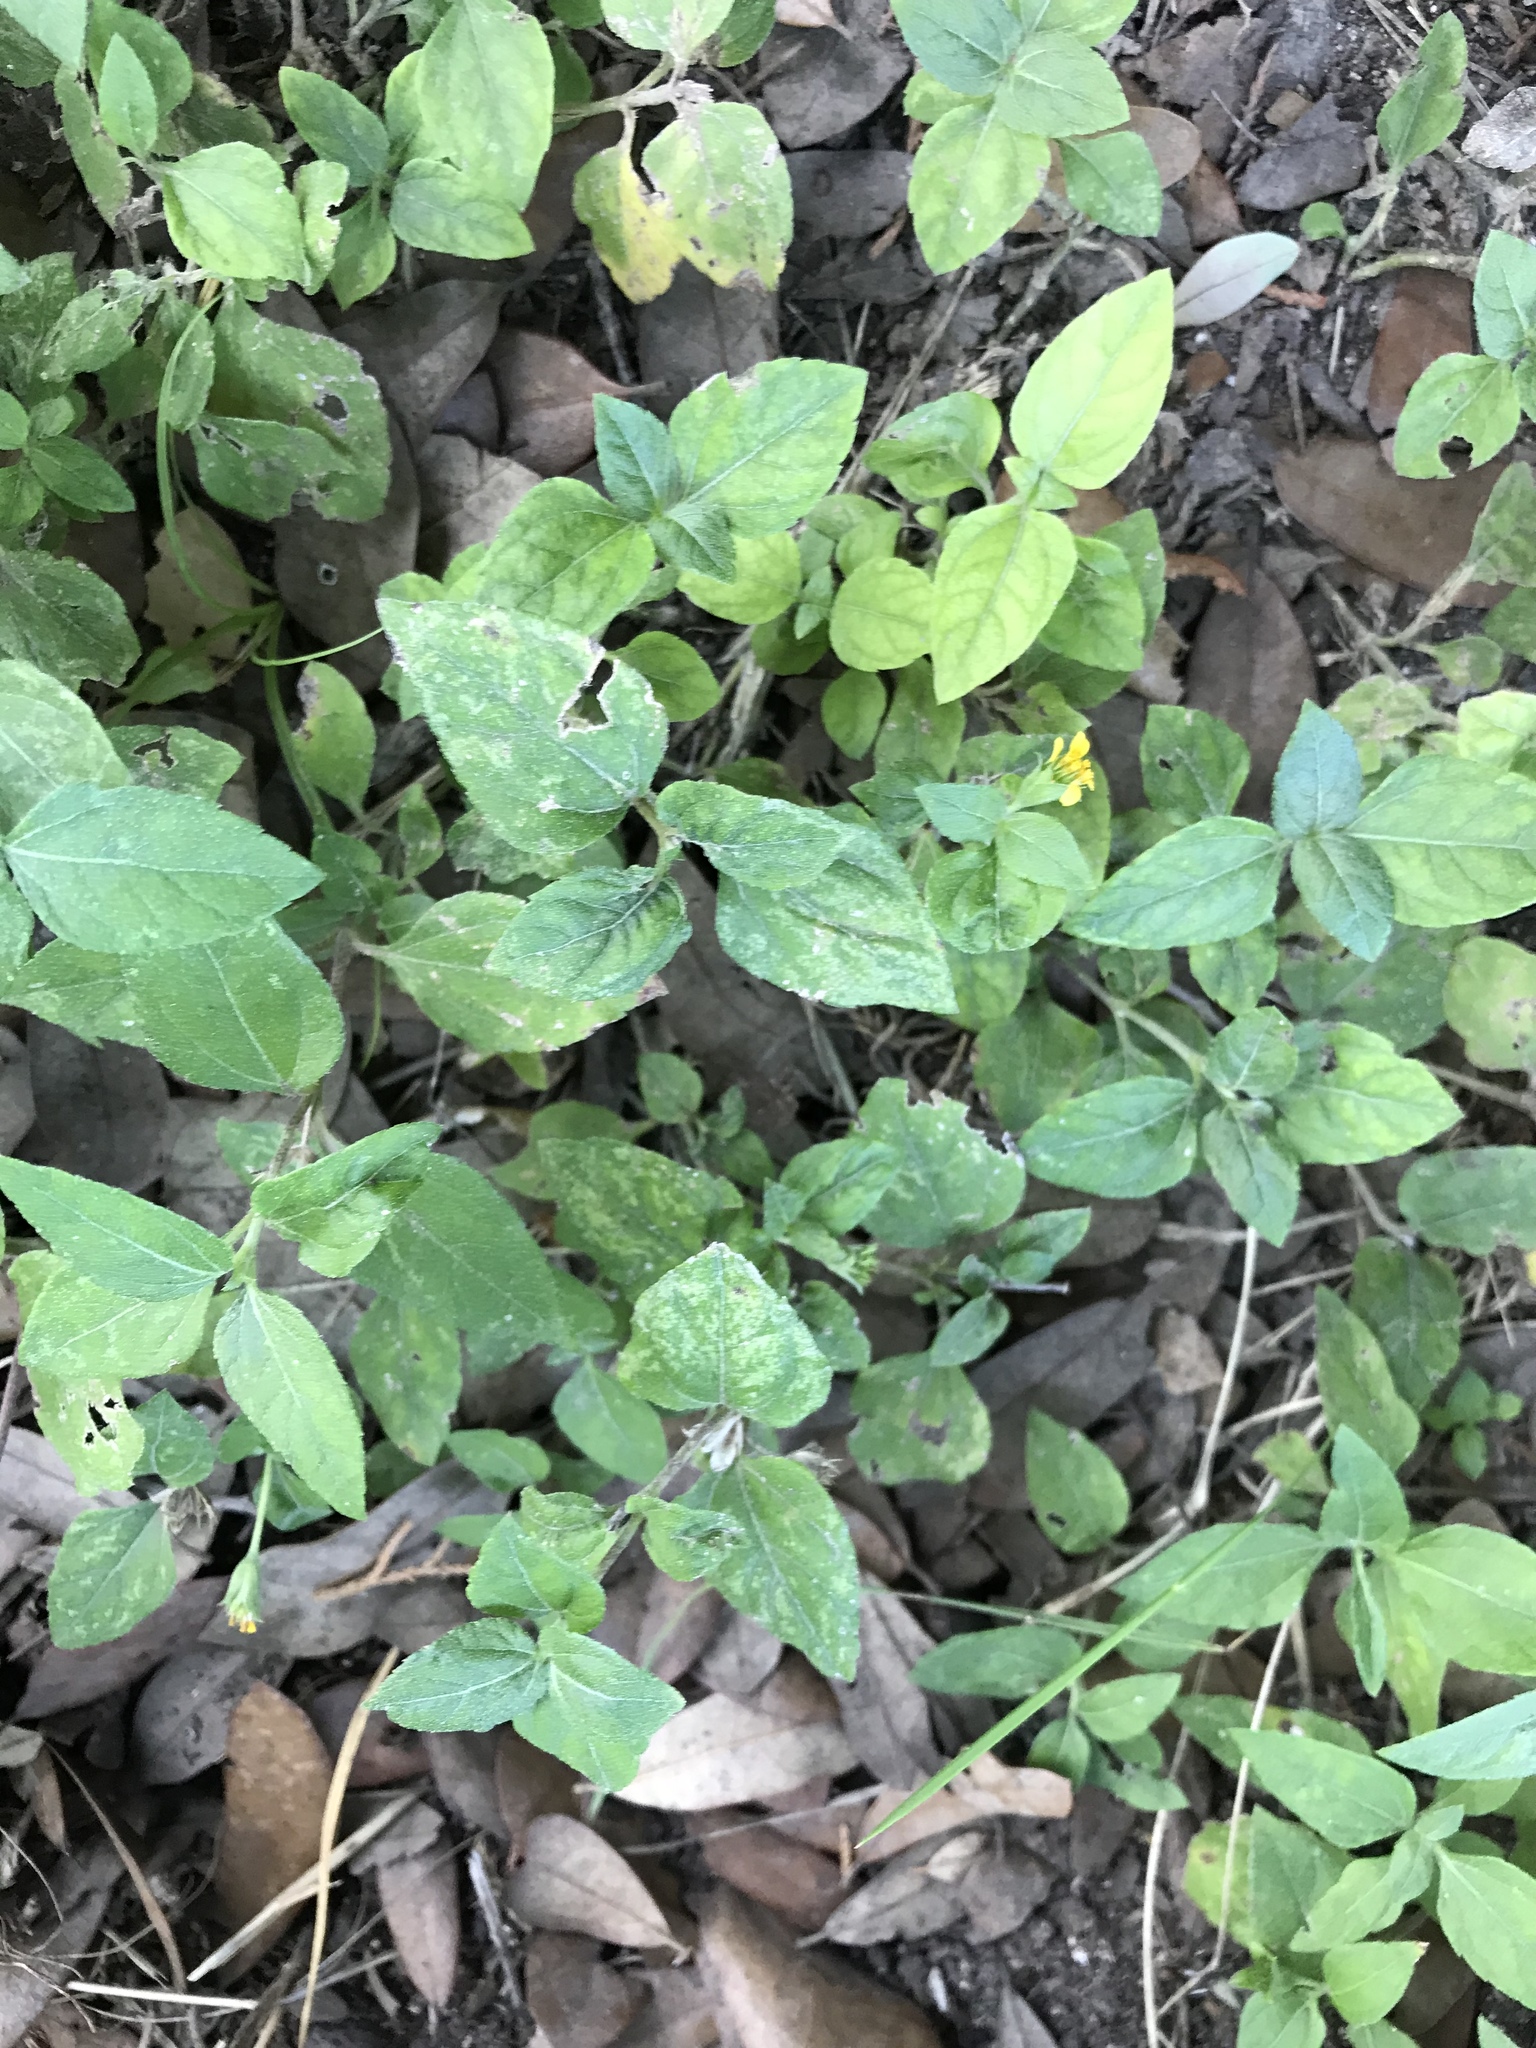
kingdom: Plantae
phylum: Tracheophyta
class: Magnoliopsida
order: Asterales
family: Asteraceae
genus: Calyptocarpus
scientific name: Calyptocarpus vialis
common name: Straggler daisy
